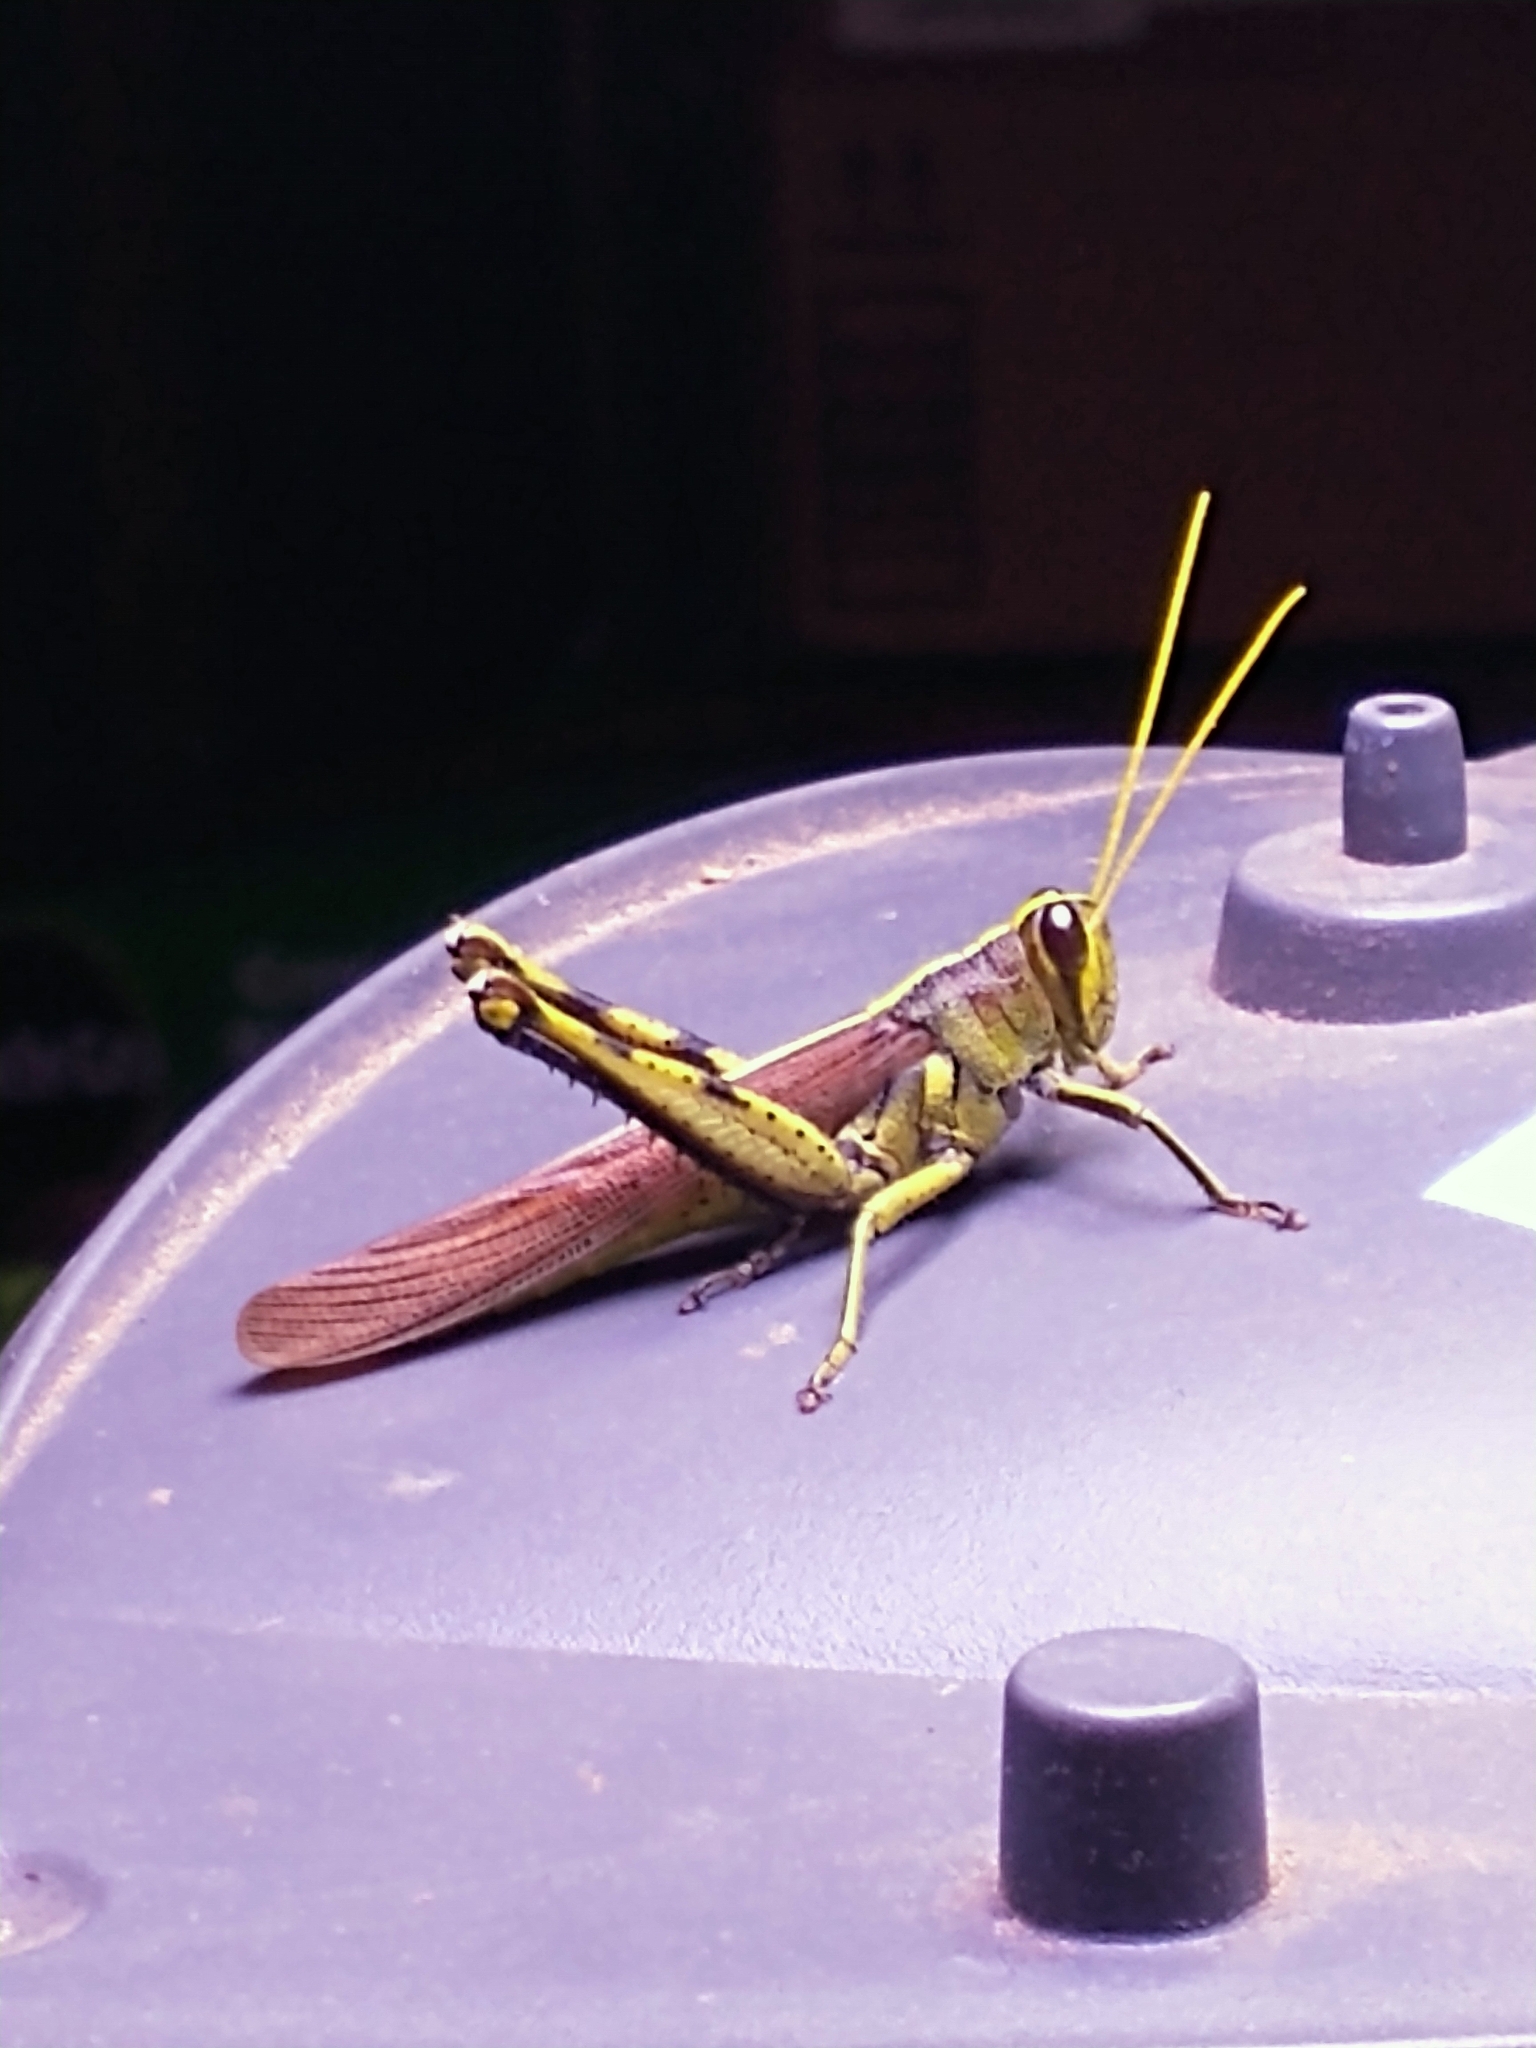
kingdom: Animalia
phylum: Arthropoda
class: Insecta
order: Orthoptera
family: Acrididae
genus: Schistocerca
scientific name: Schistocerca obscura
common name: Obscure bird grasshopper
